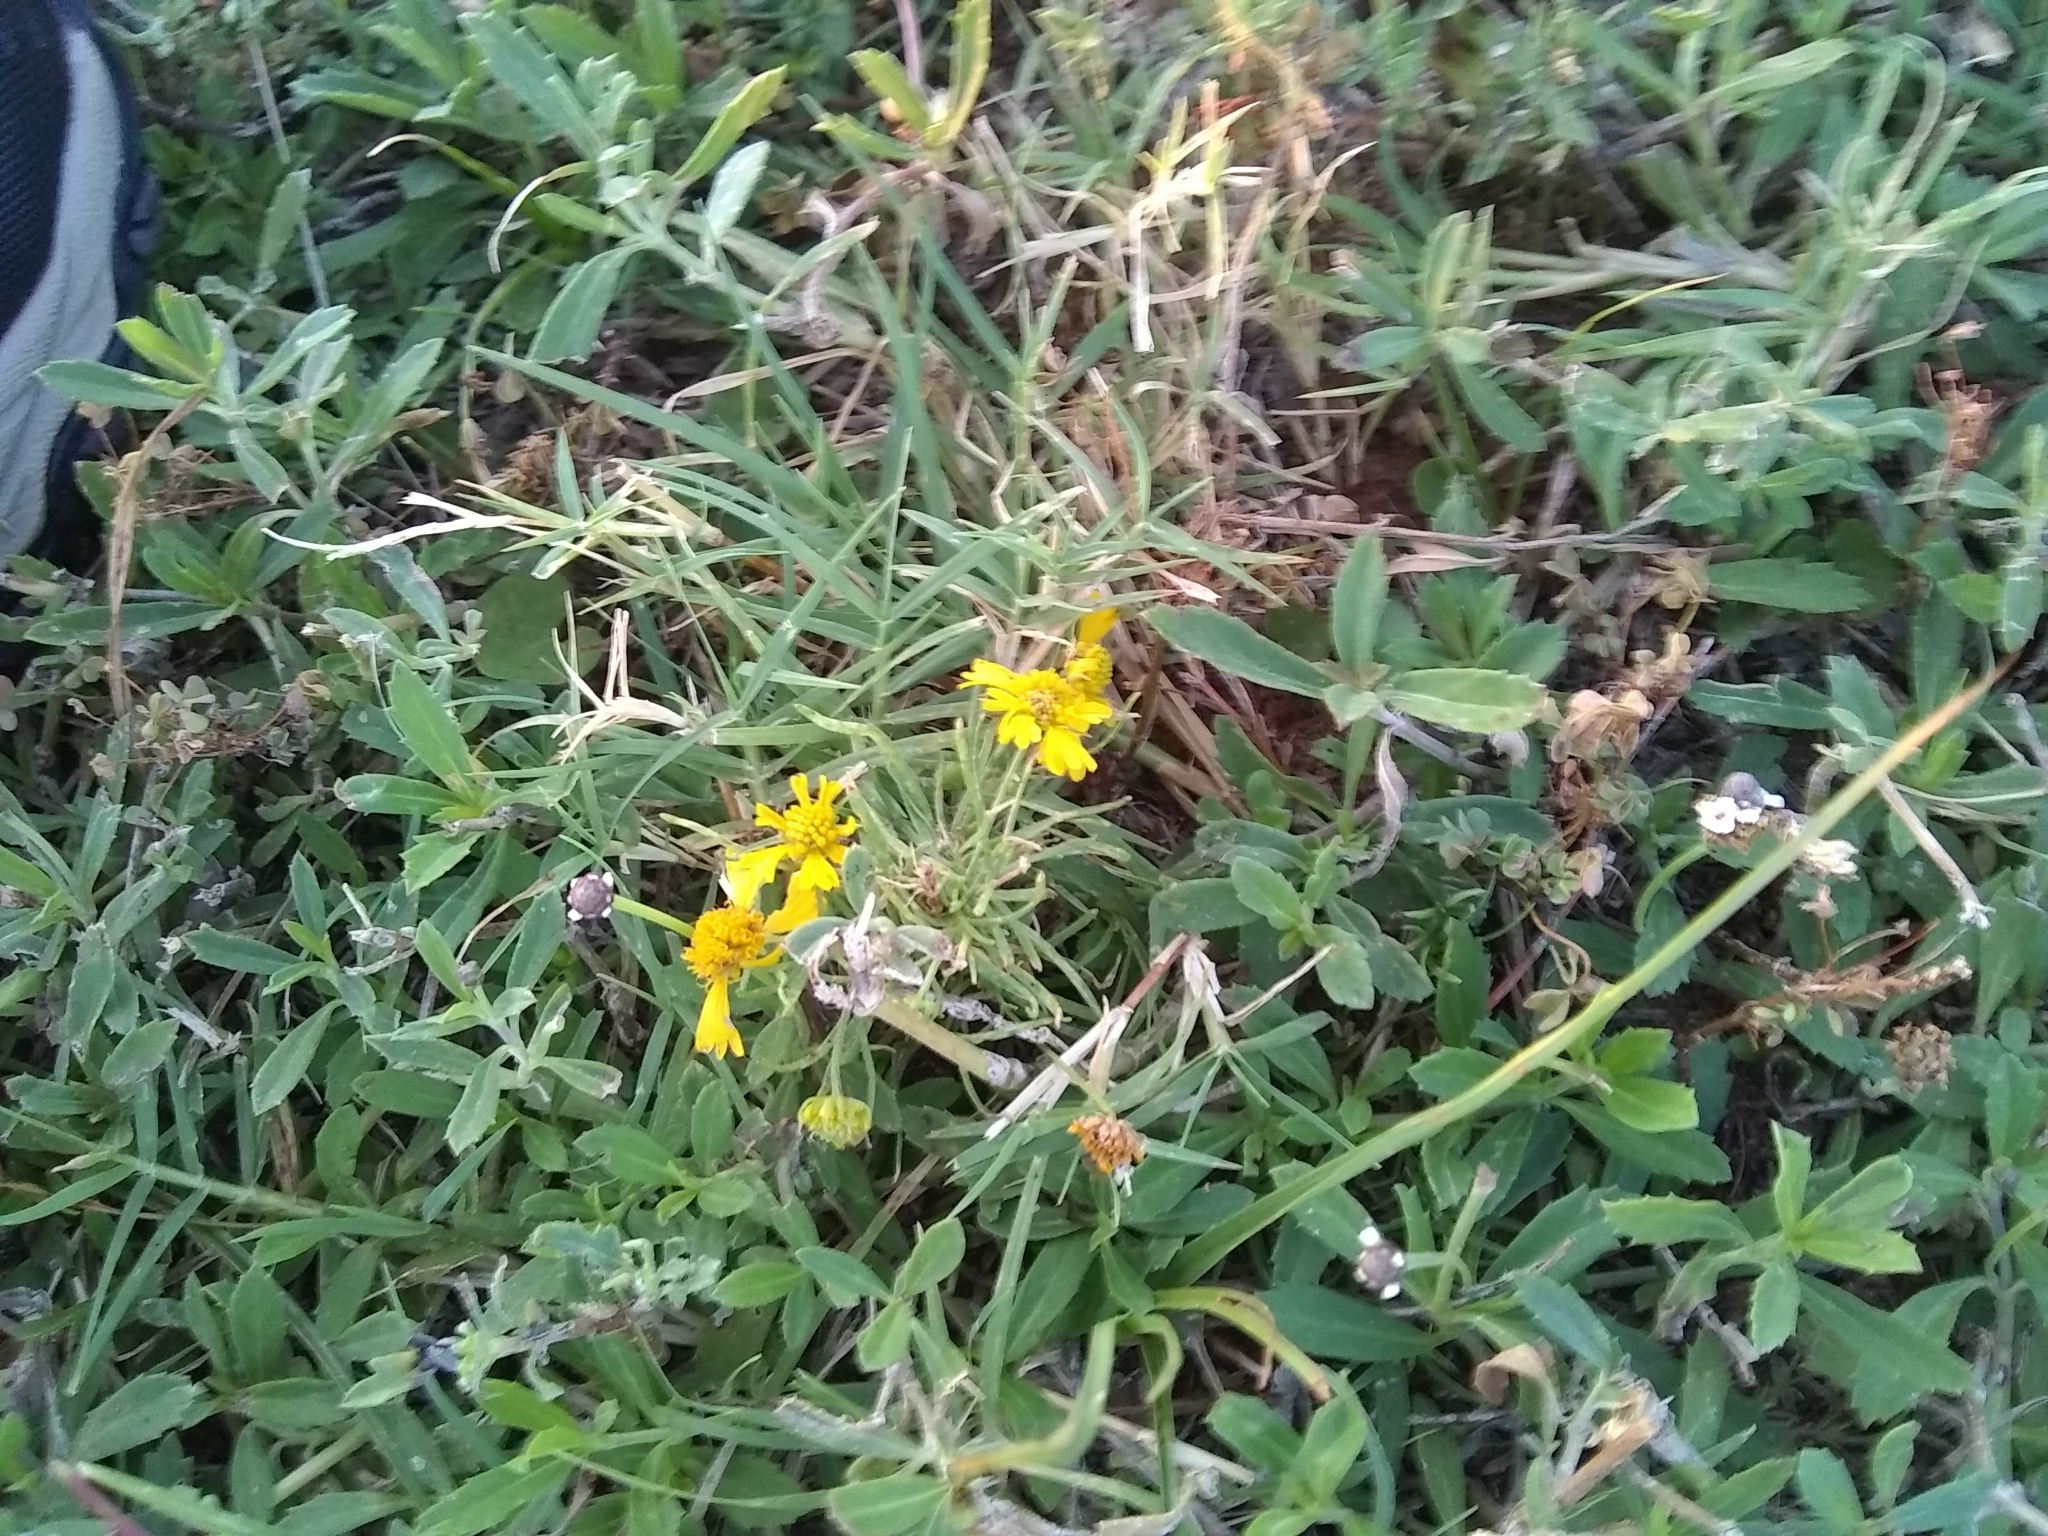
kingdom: Plantae
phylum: Tracheophyta
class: Magnoliopsida
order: Asterales
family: Asteraceae
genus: Helenium
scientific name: Helenium amarum
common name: Bitter sneezeweed
